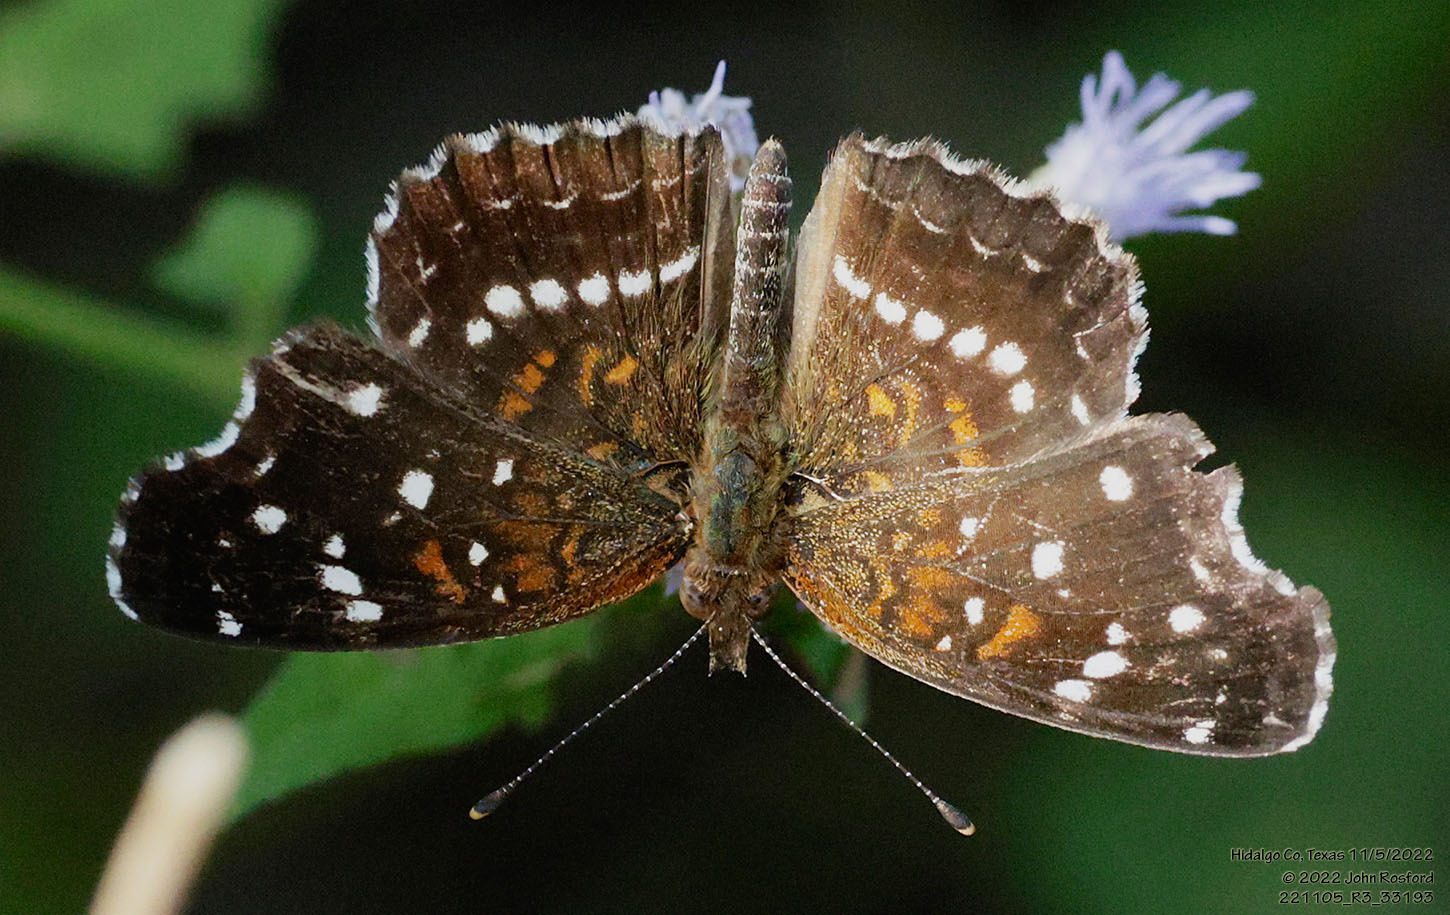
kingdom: Animalia
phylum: Arthropoda
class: Insecta
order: Lepidoptera
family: Nymphalidae
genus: Anthanassa
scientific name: Anthanassa texana
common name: Texan crescent
